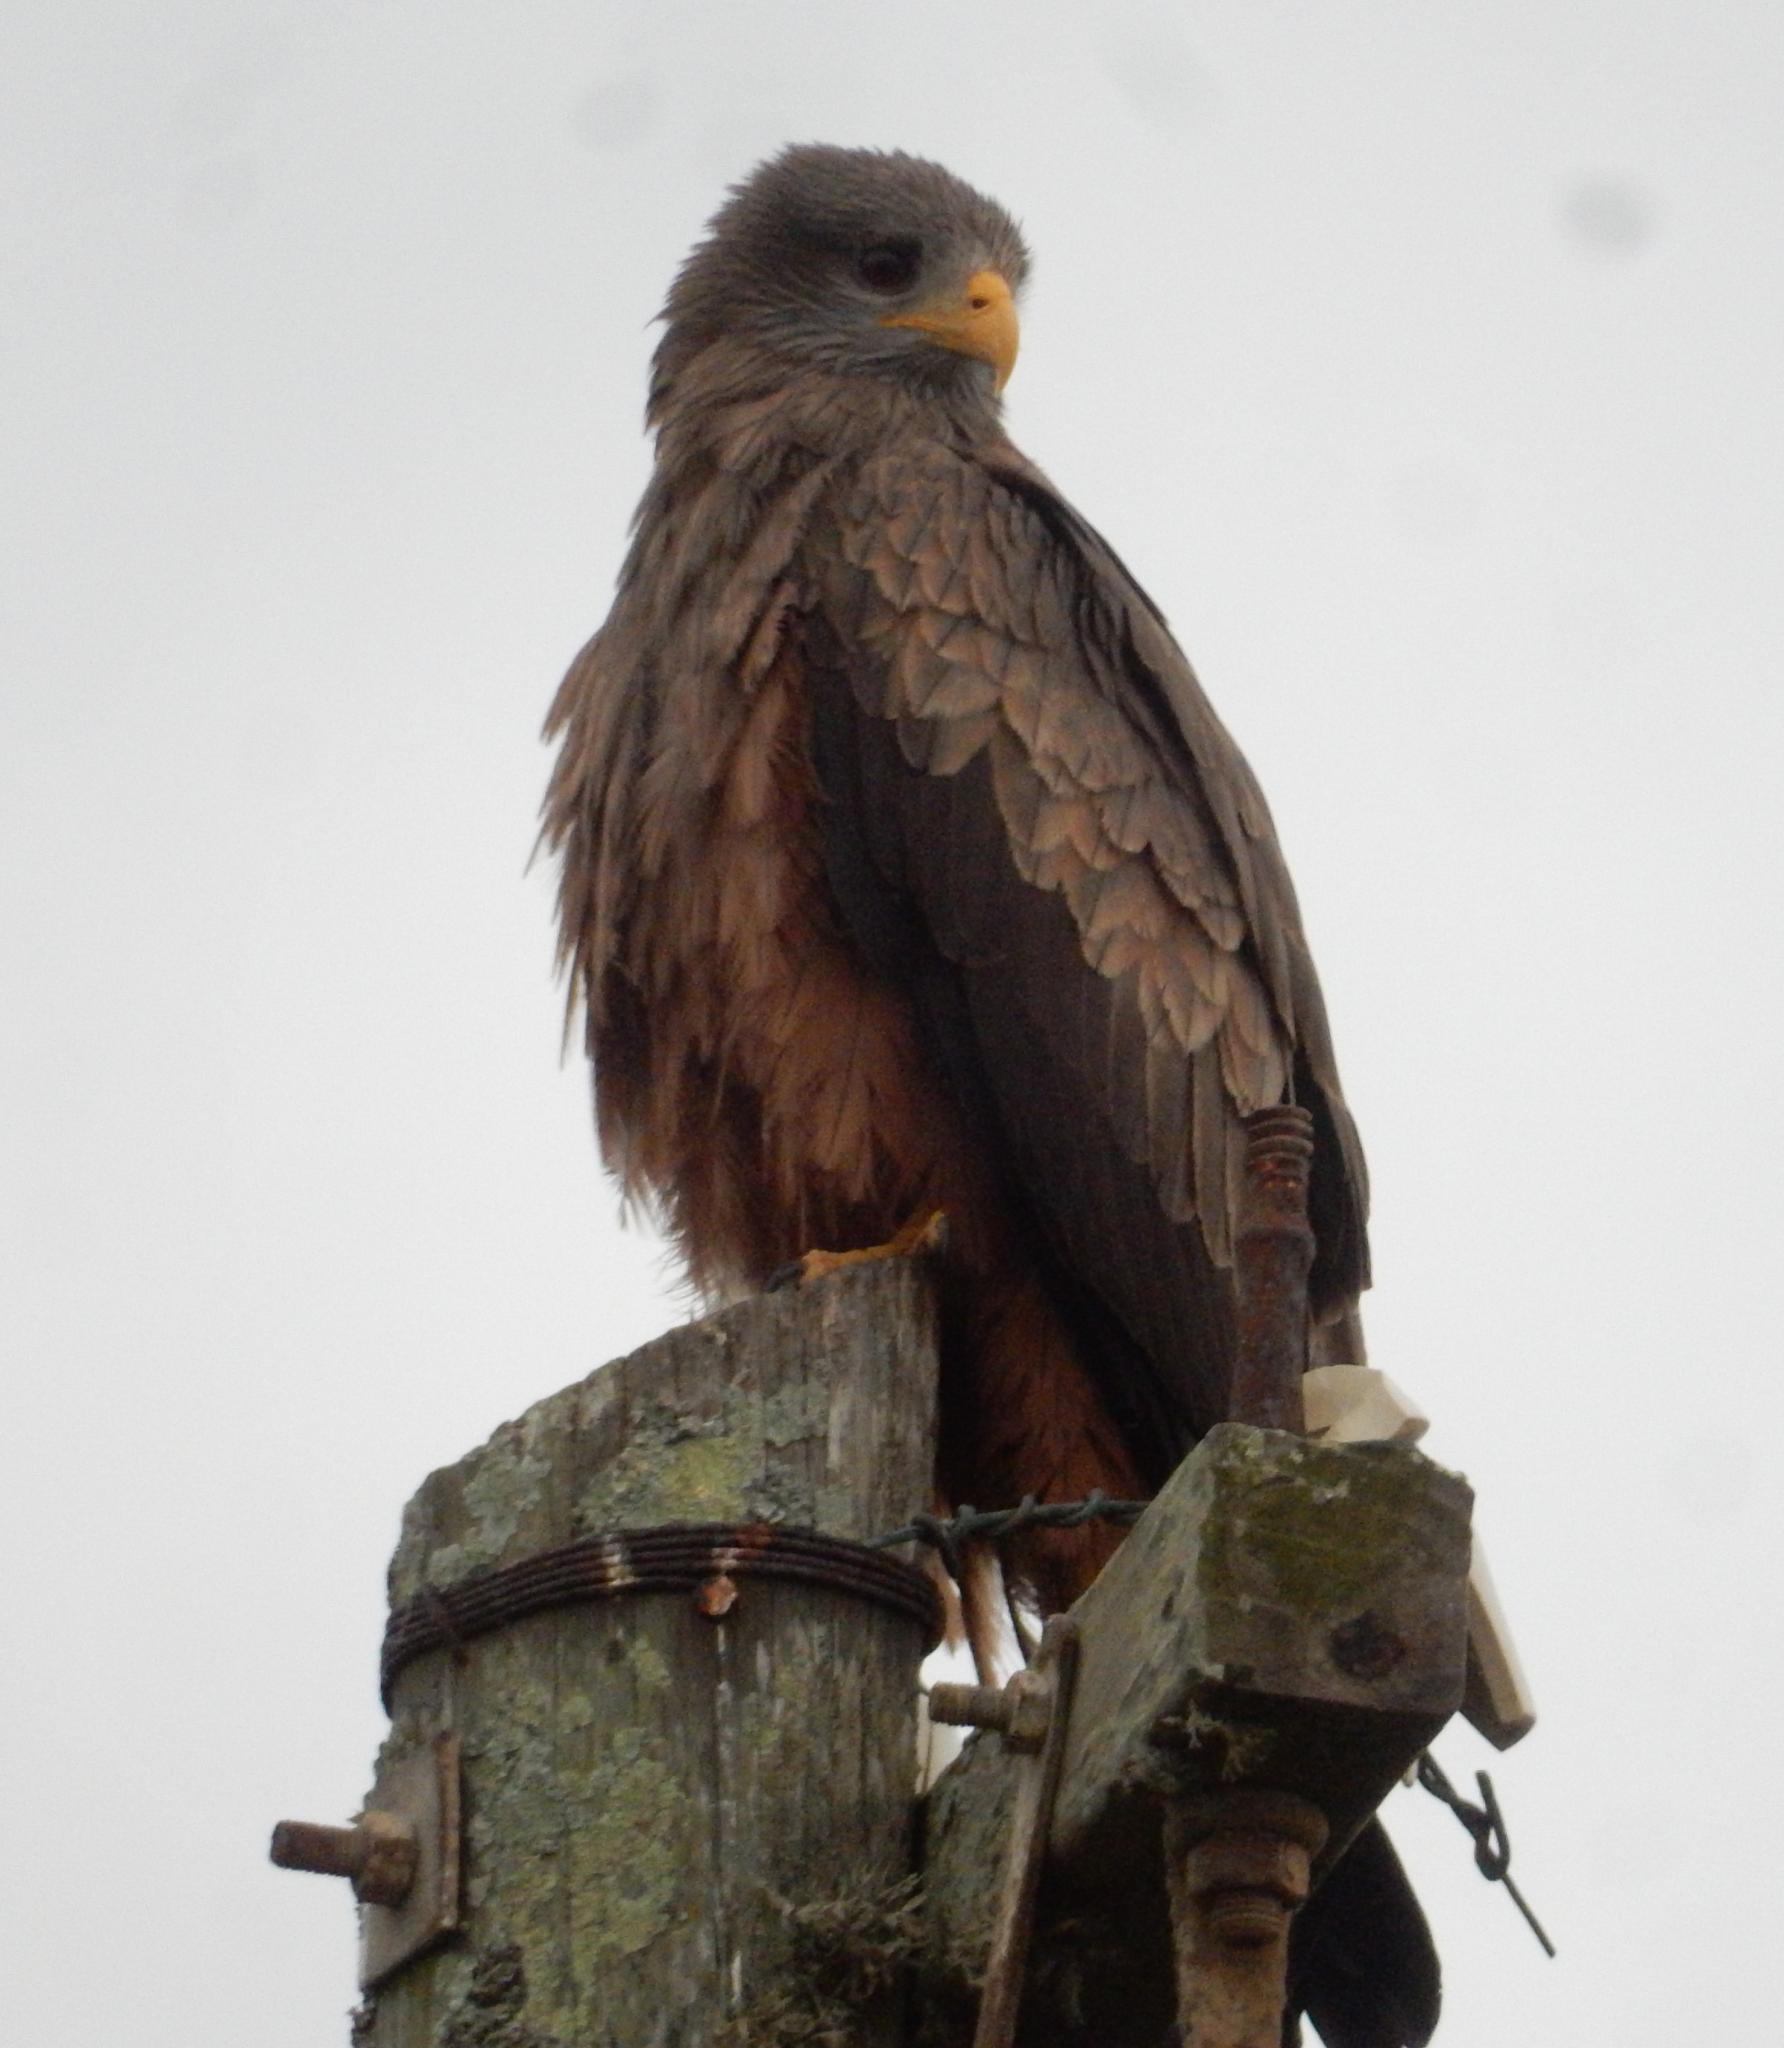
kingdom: Animalia
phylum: Chordata
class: Aves
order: Accipitriformes
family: Accipitridae
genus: Milvus
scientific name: Milvus migrans
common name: Black kite
